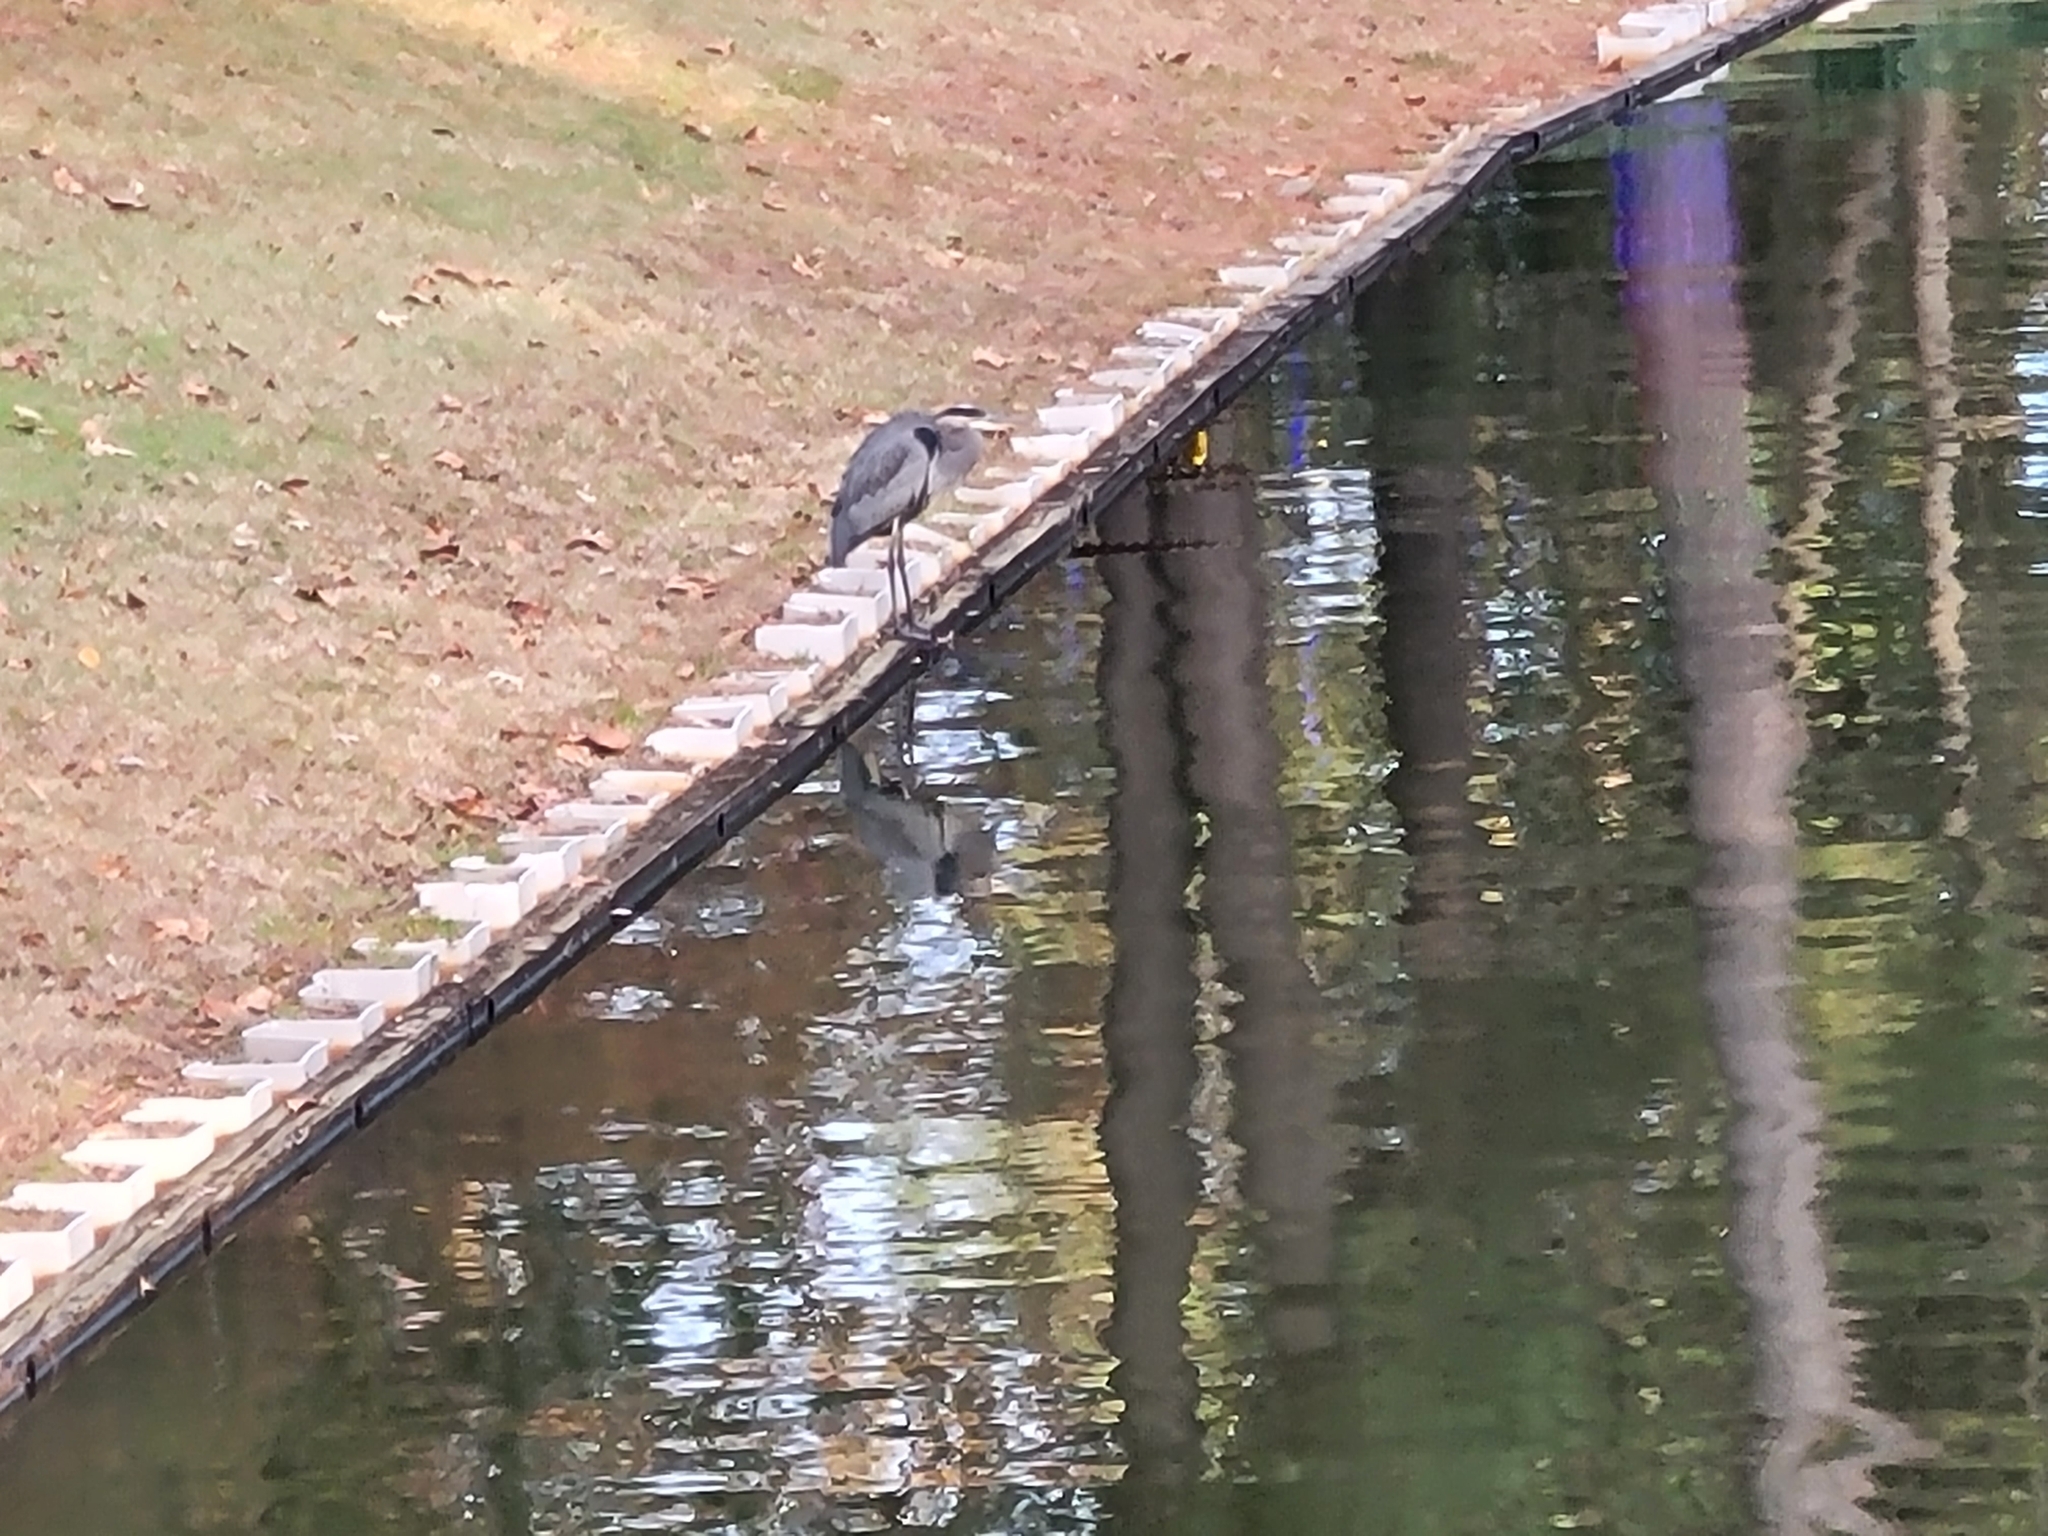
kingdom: Animalia
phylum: Chordata
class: Aves
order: Pelecaniformes
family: Ardeidae
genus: Ardea
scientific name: Ardea herodias
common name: Great blue heron
